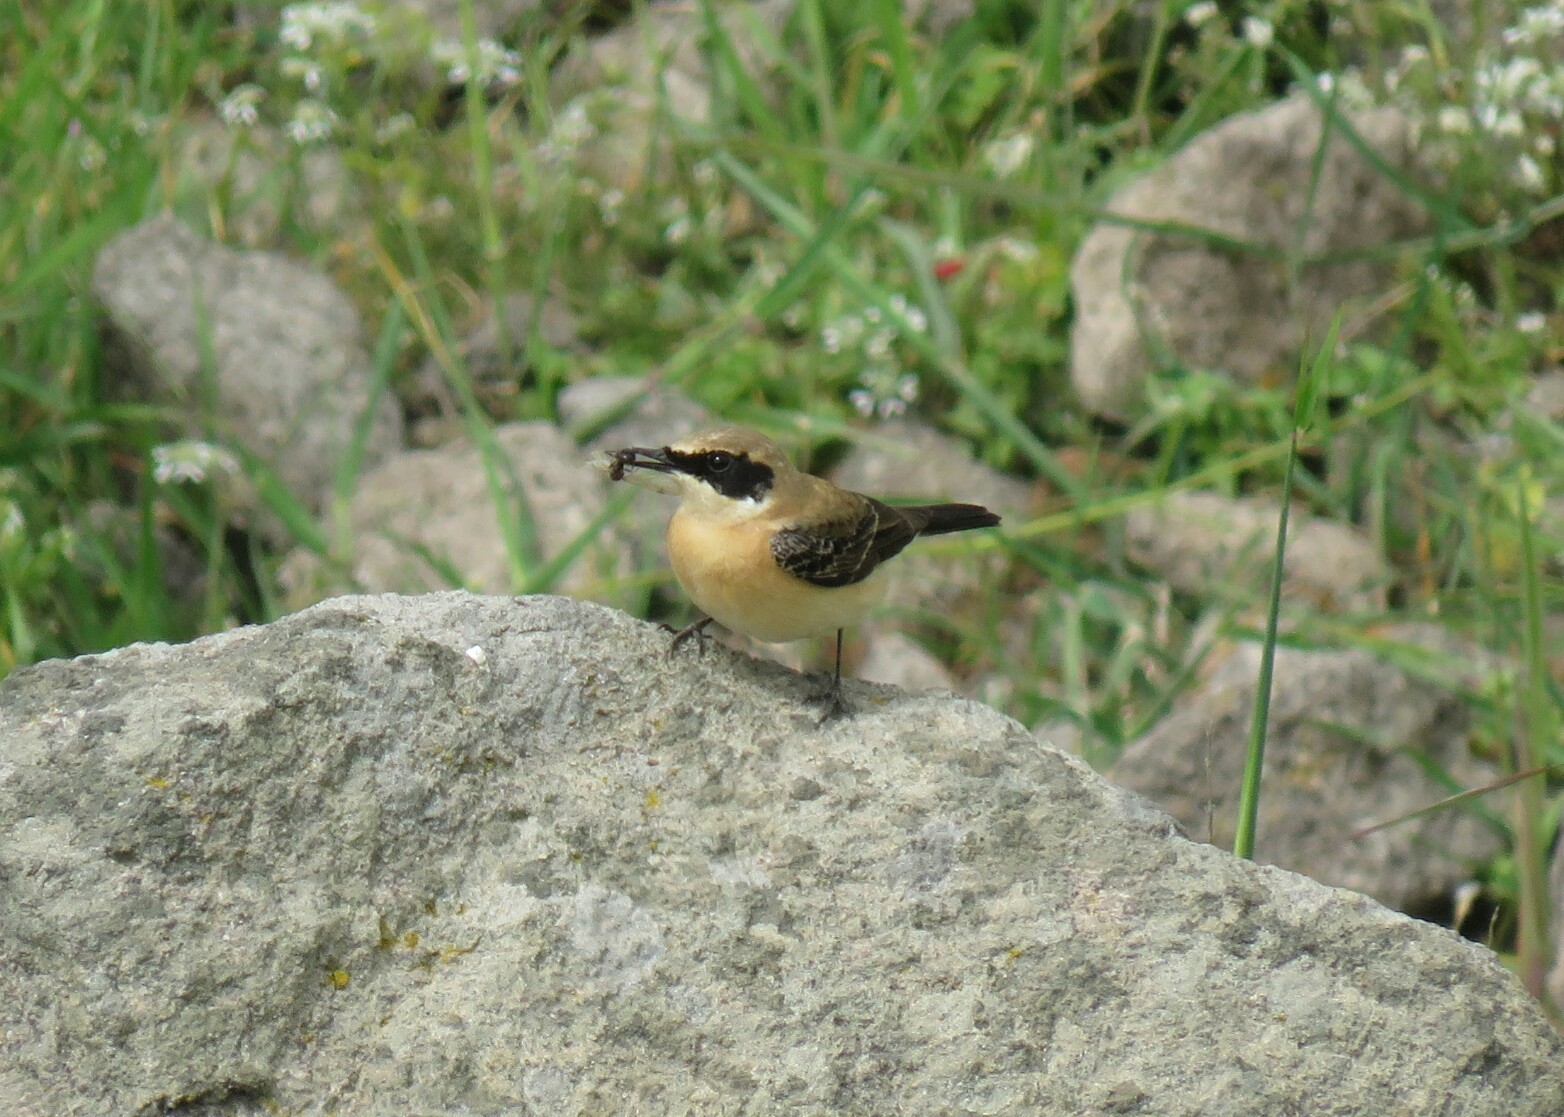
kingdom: Animalia
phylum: Chordata
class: Aves
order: Passeriformes
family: Muscicapidae
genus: Oenanthe
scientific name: Oenanthe hispanica
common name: Black-eared wheatear
